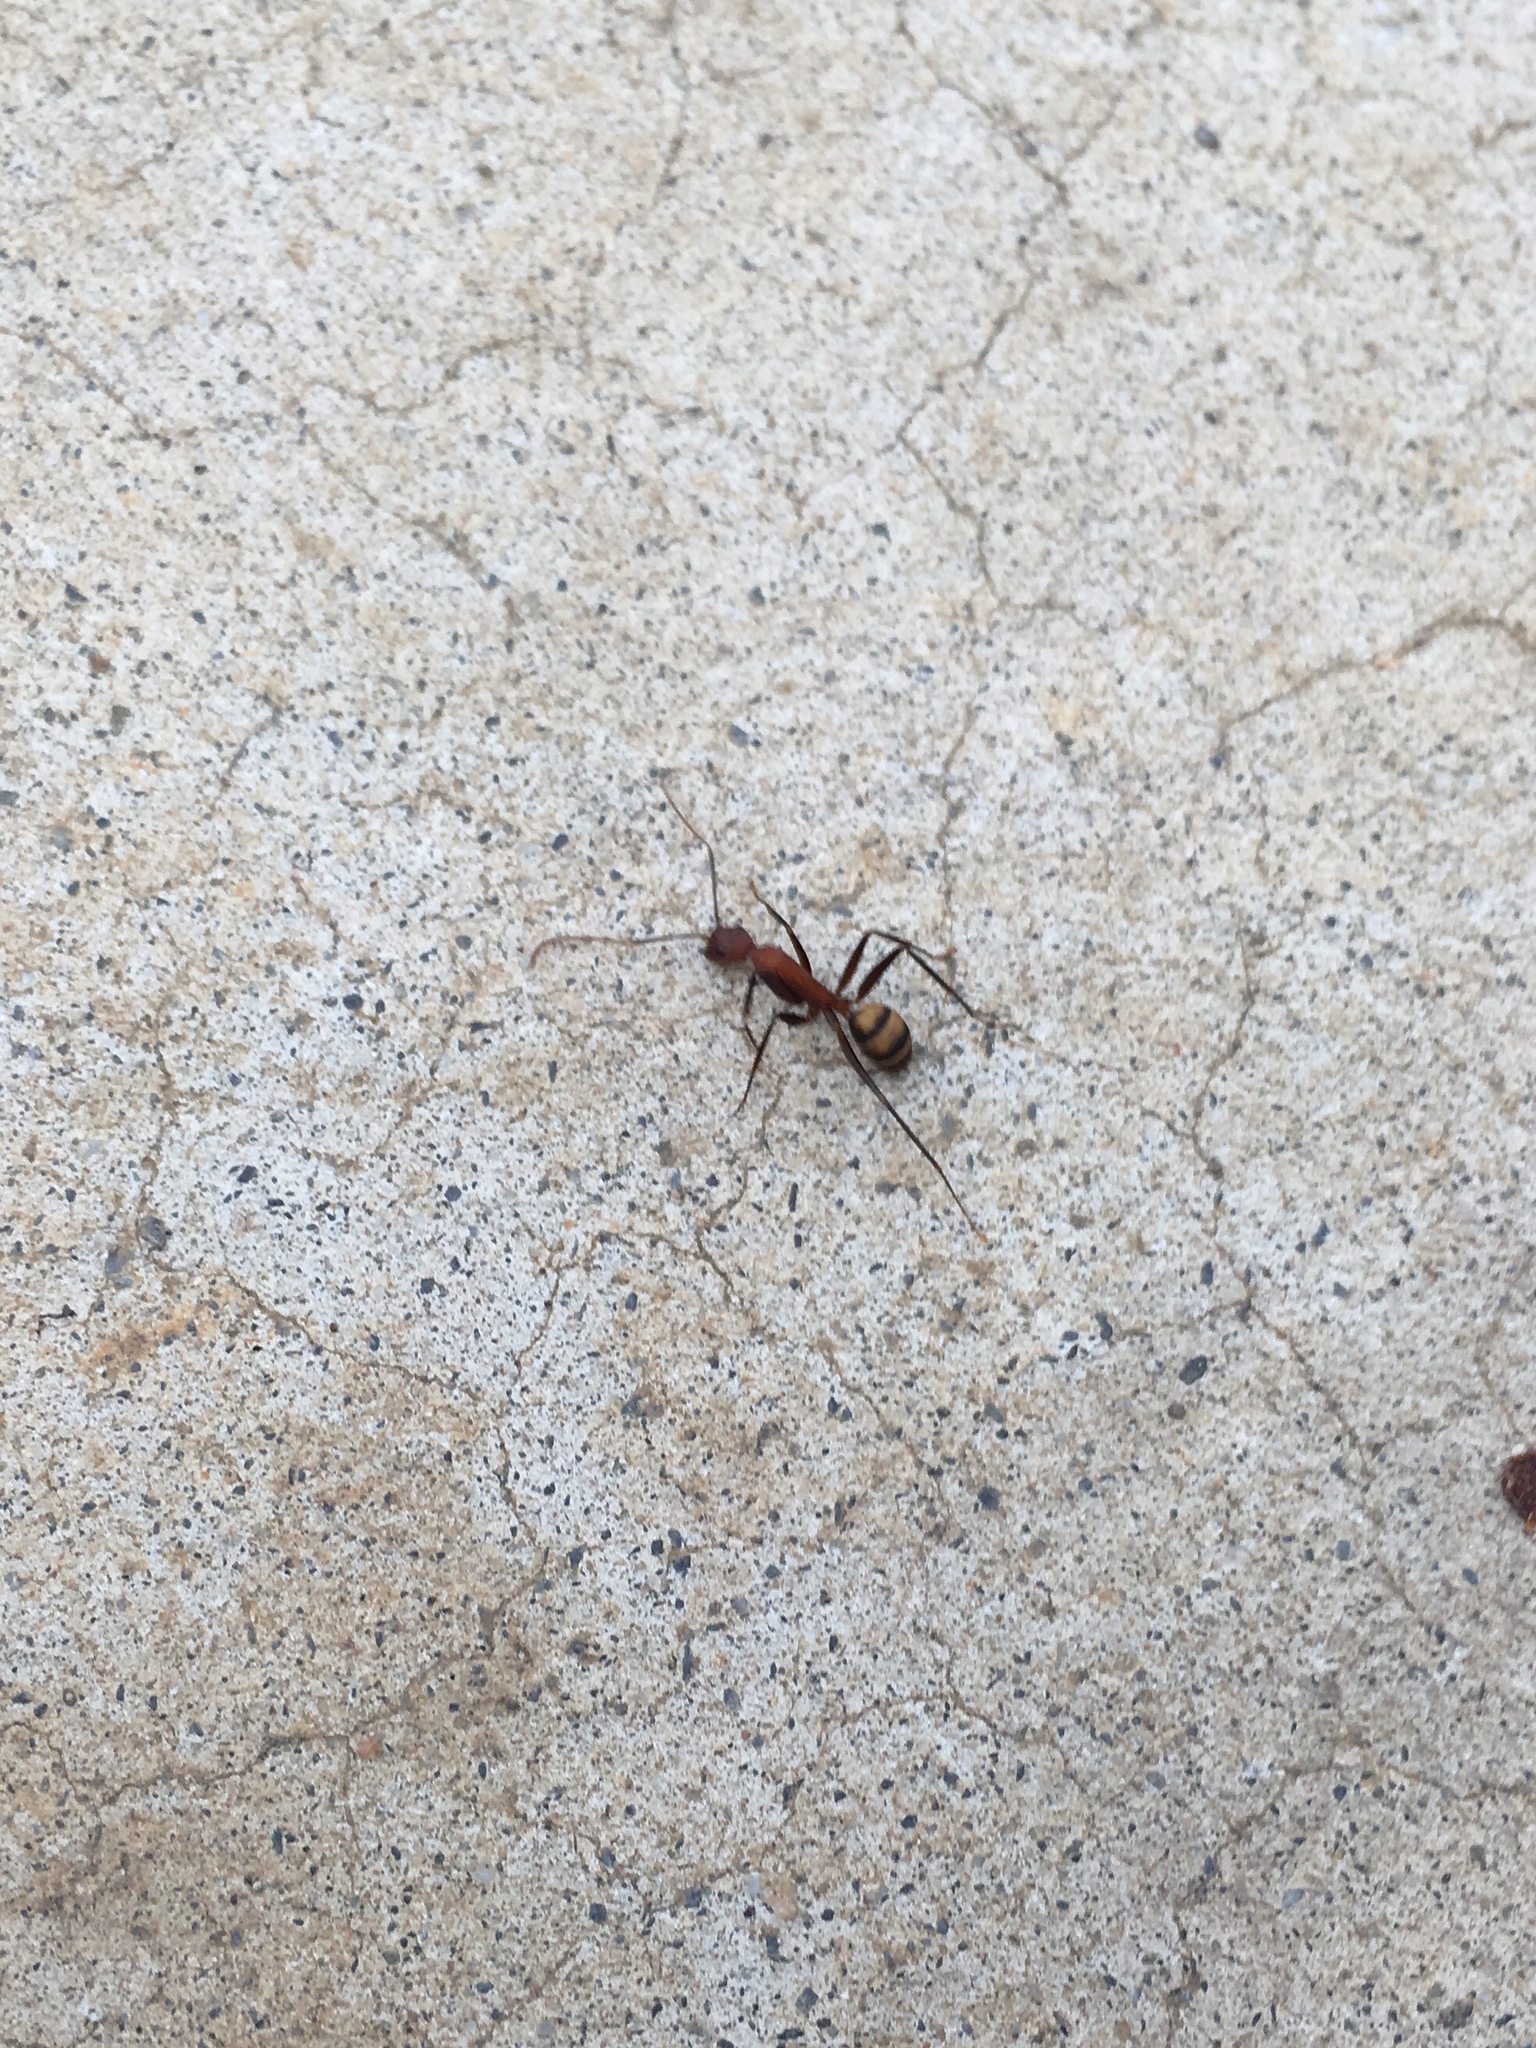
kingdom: Animalia
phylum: Arthropoda
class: Insecta
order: Hymenoptera
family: Formicidae
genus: Camponotus
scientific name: Camponotus habereri
